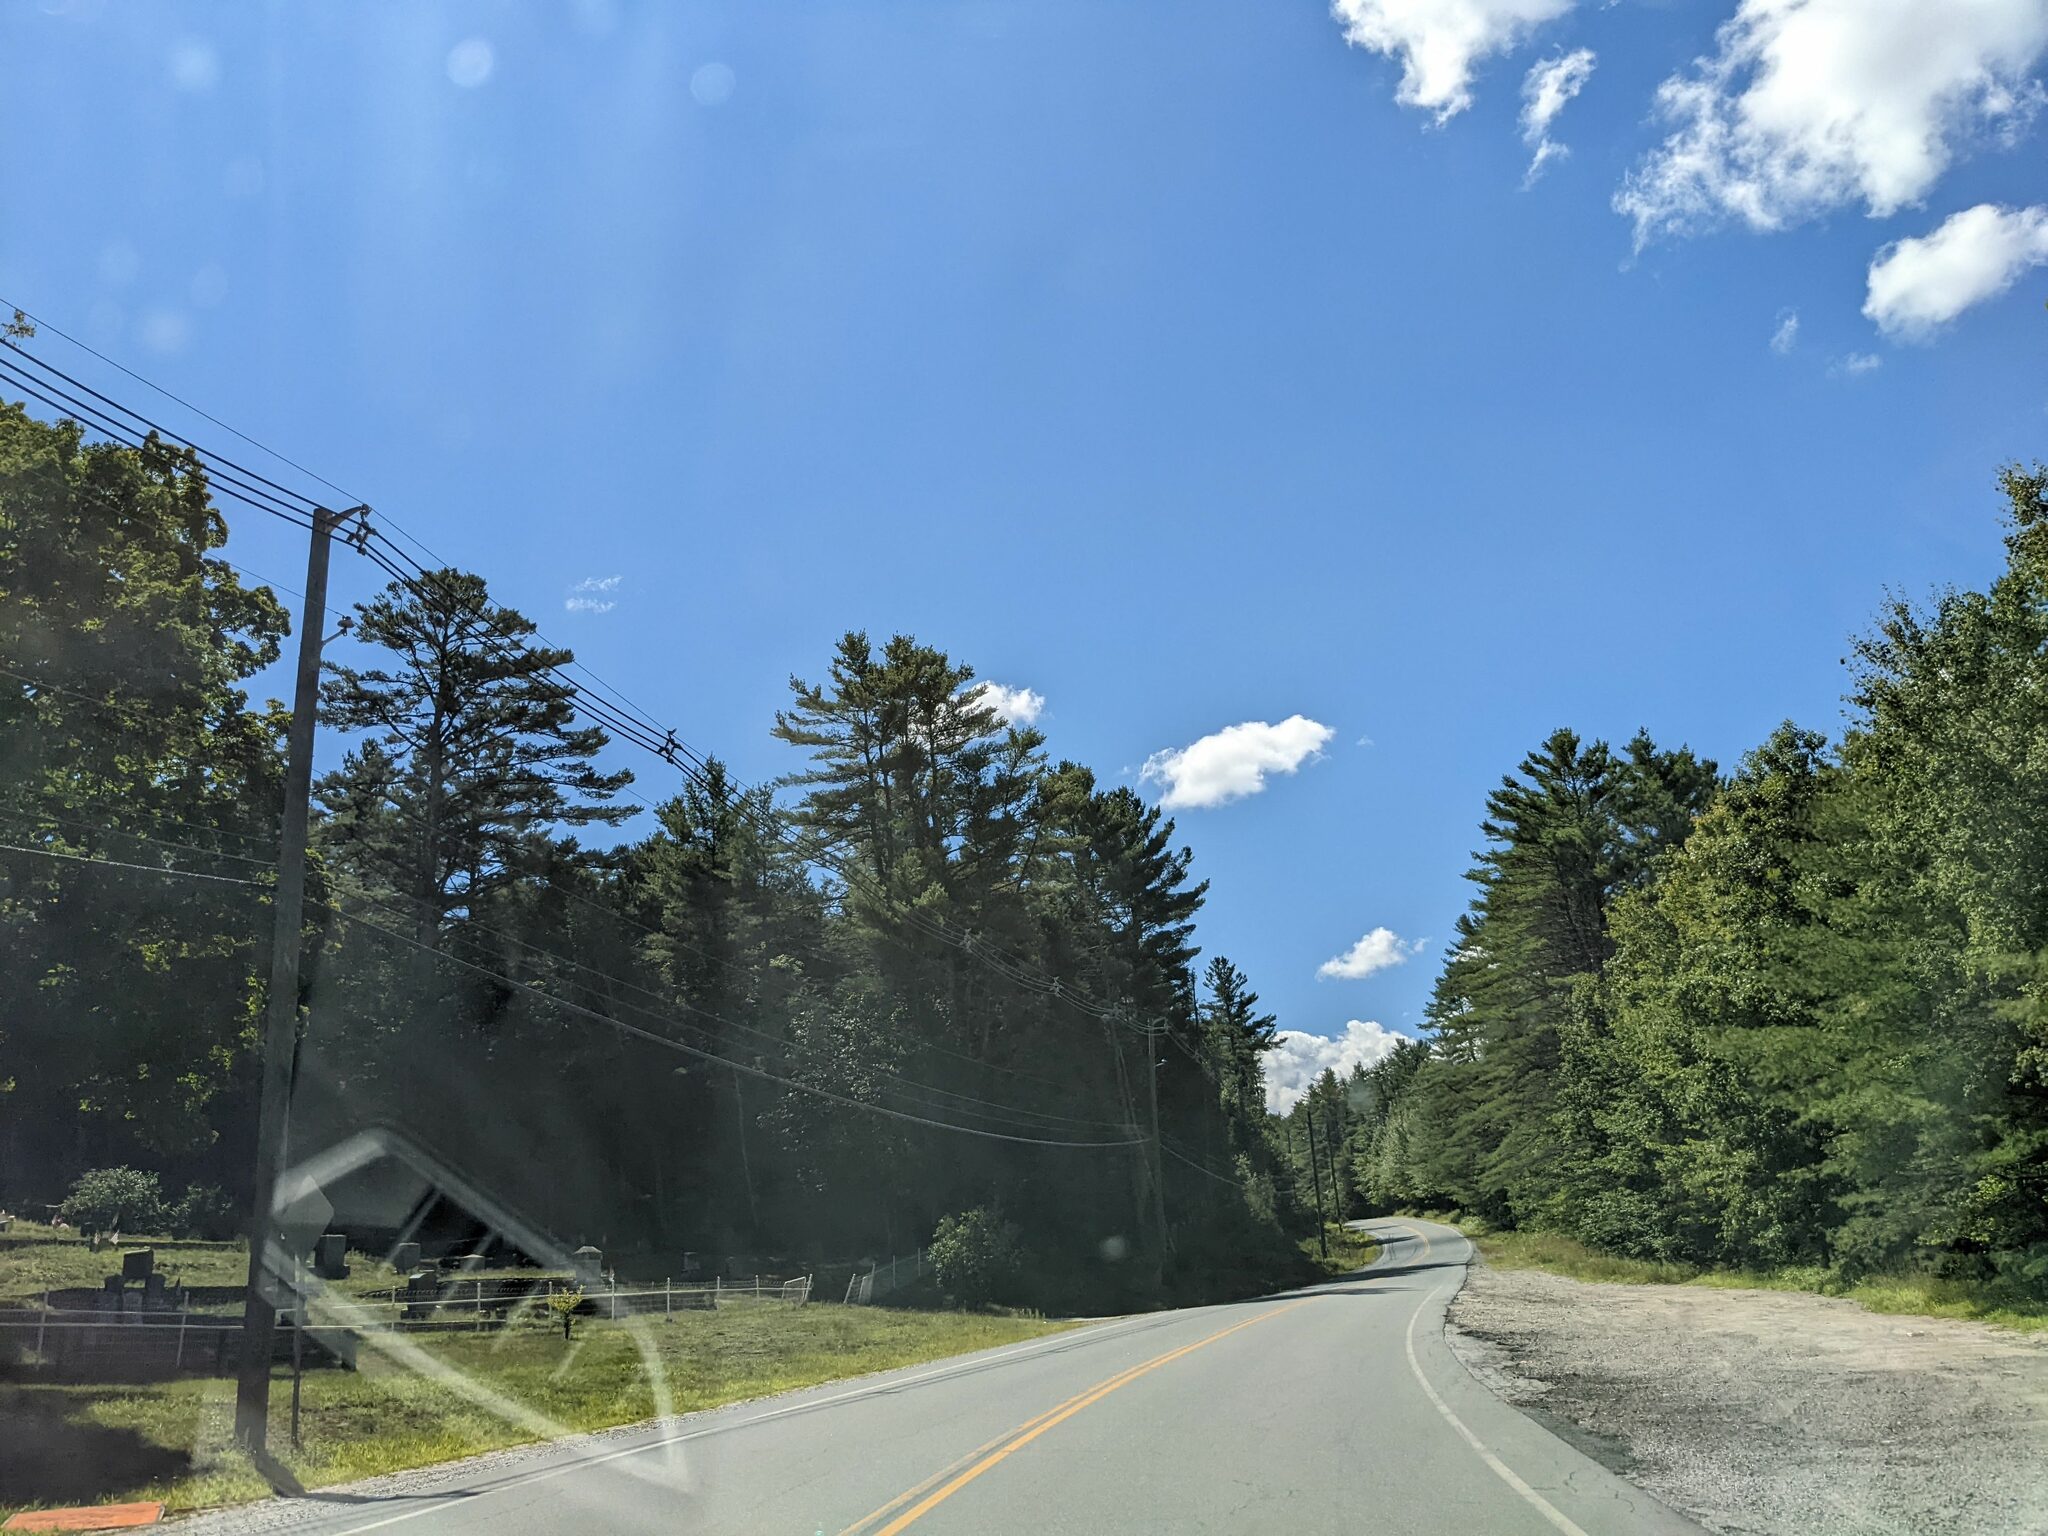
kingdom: Plantae
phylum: Tracheophyta
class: Pinopsida
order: Pinales
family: Pinaceae
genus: Pinus
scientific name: Pinus strobus
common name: Weymouth pine
